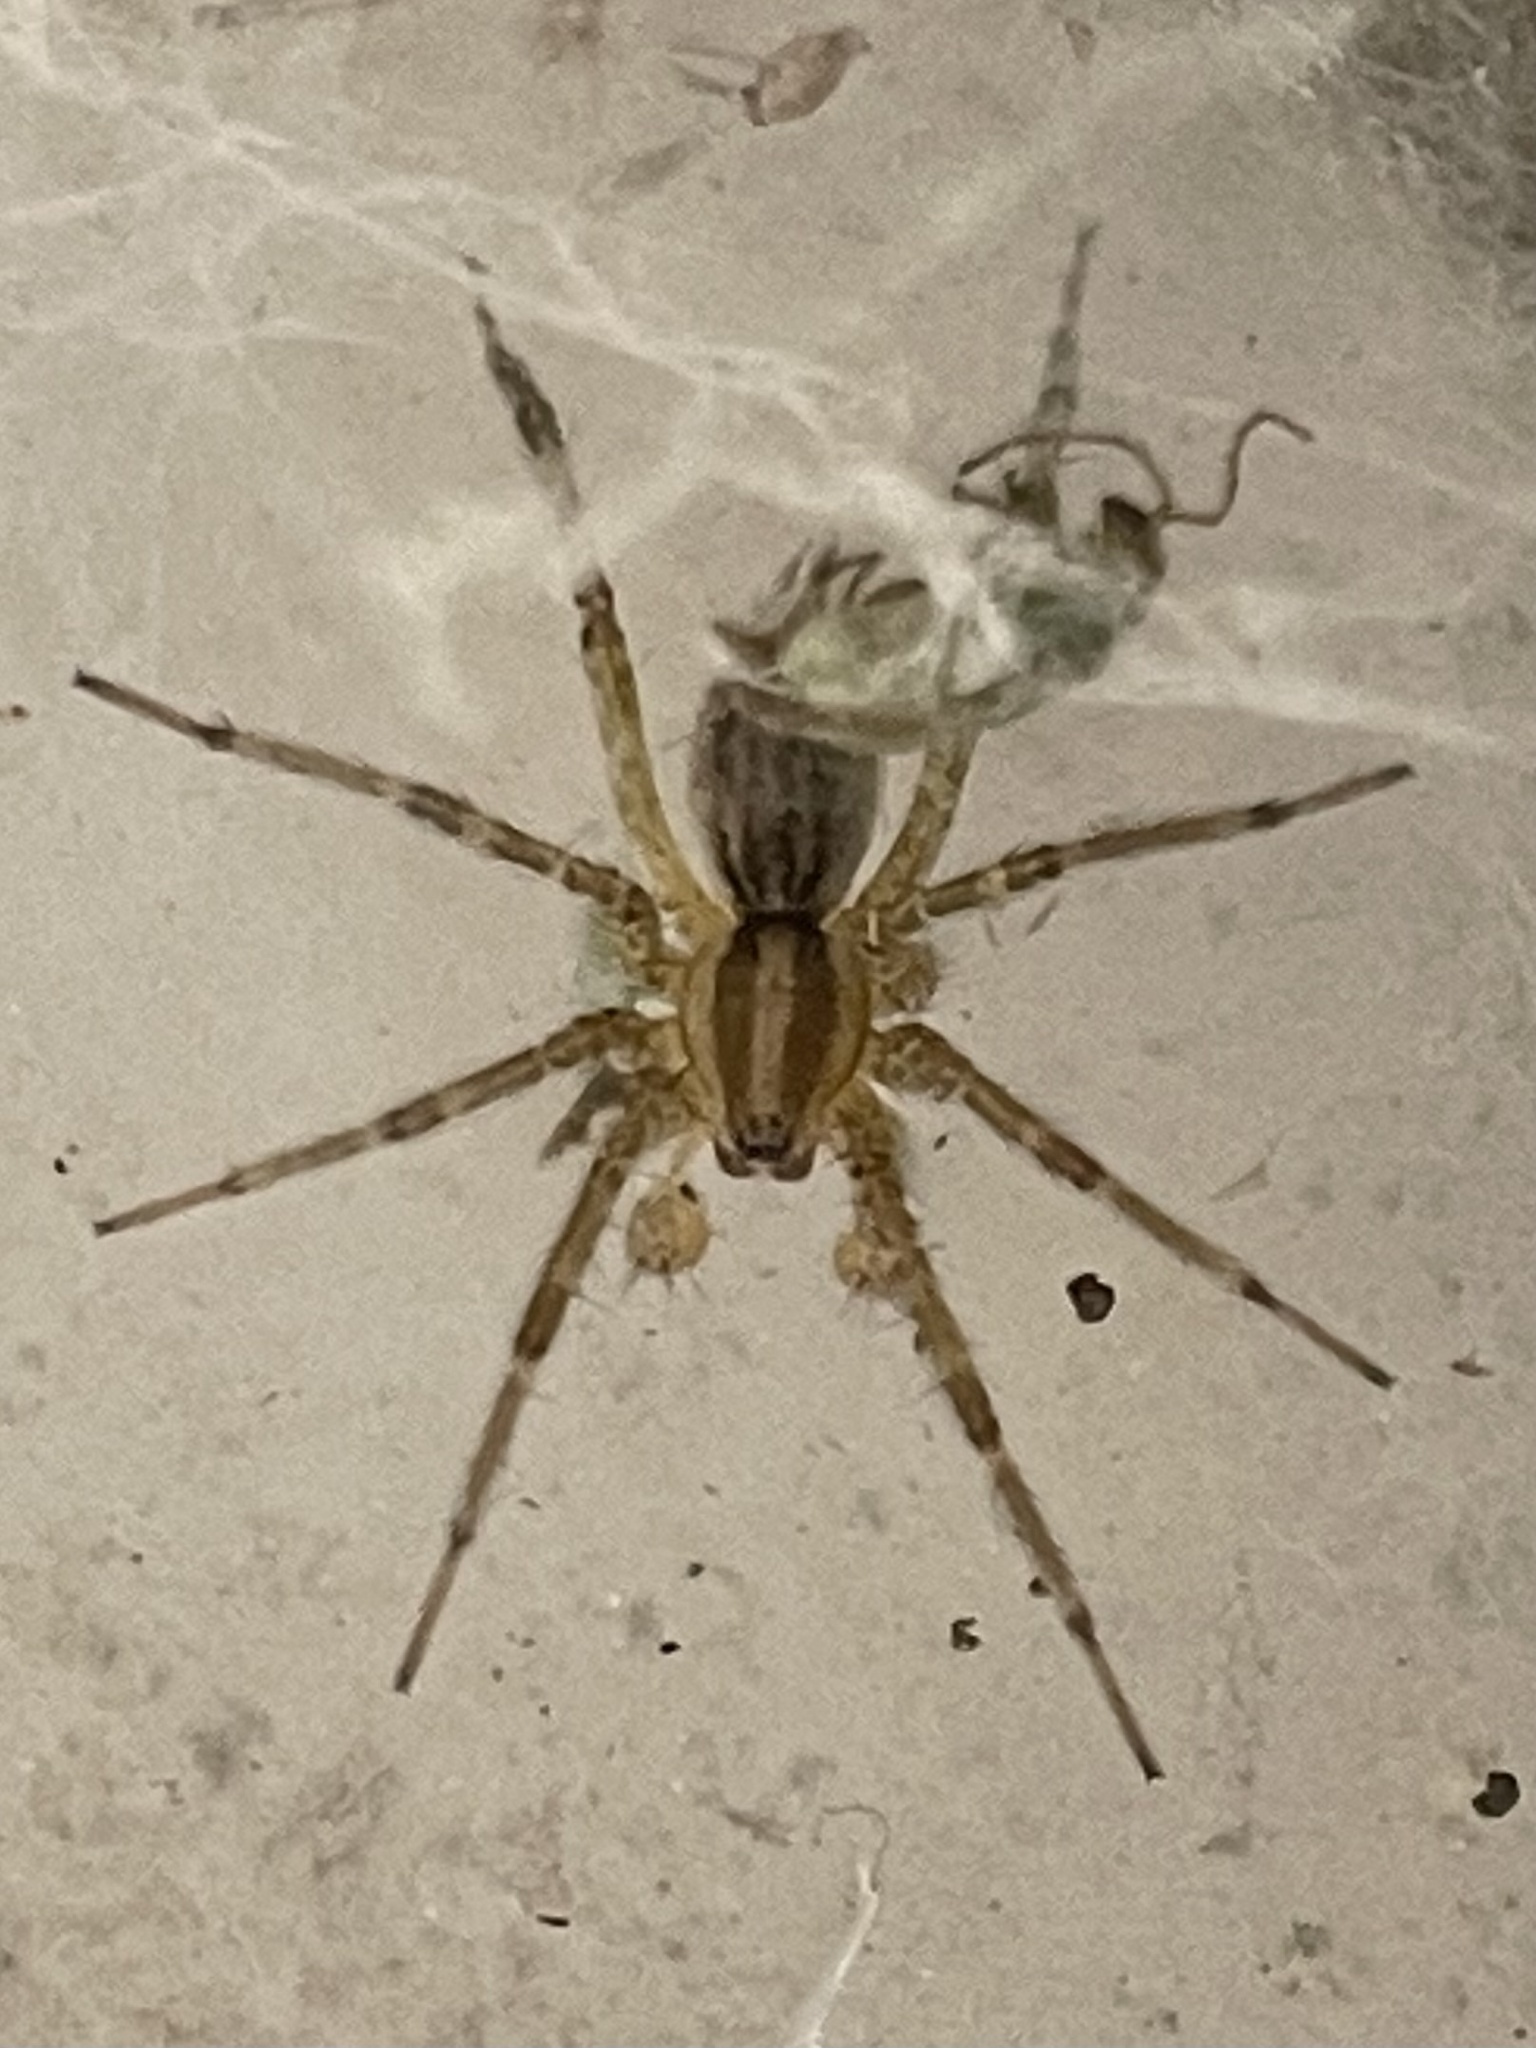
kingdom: Animalia
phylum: Arthropoda
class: Arachnida
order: Araneae
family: Agelenidae
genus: Agelenopsis
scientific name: Agelenopsis
